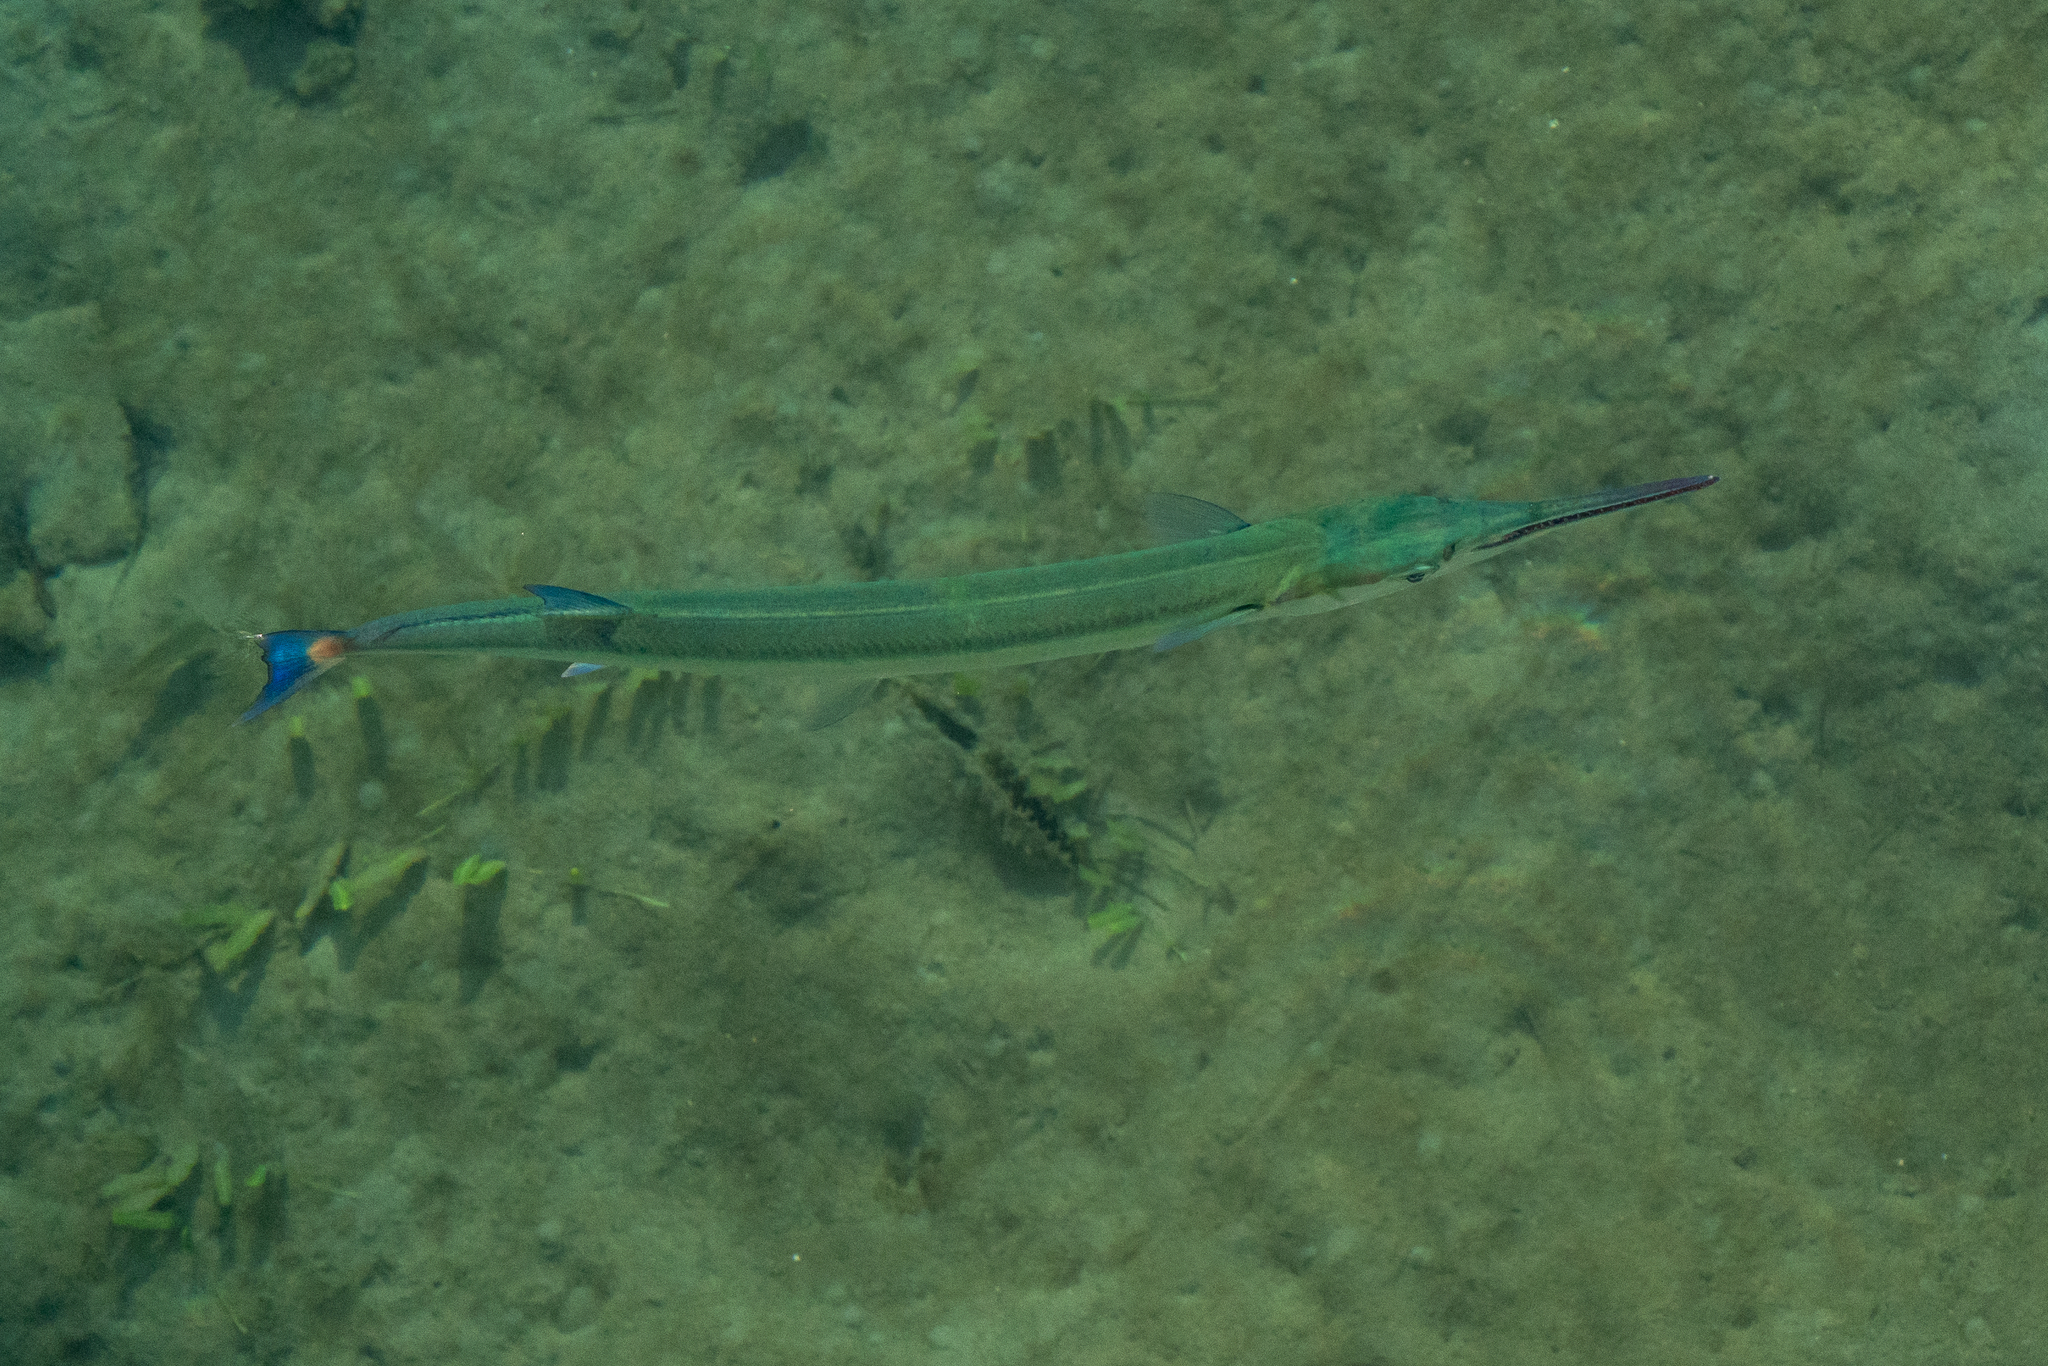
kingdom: Animalia
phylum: Chordata
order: Beloniformes
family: Belonidae
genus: Tylosurus
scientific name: Tylosurus crocodilus
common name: Houndfish
